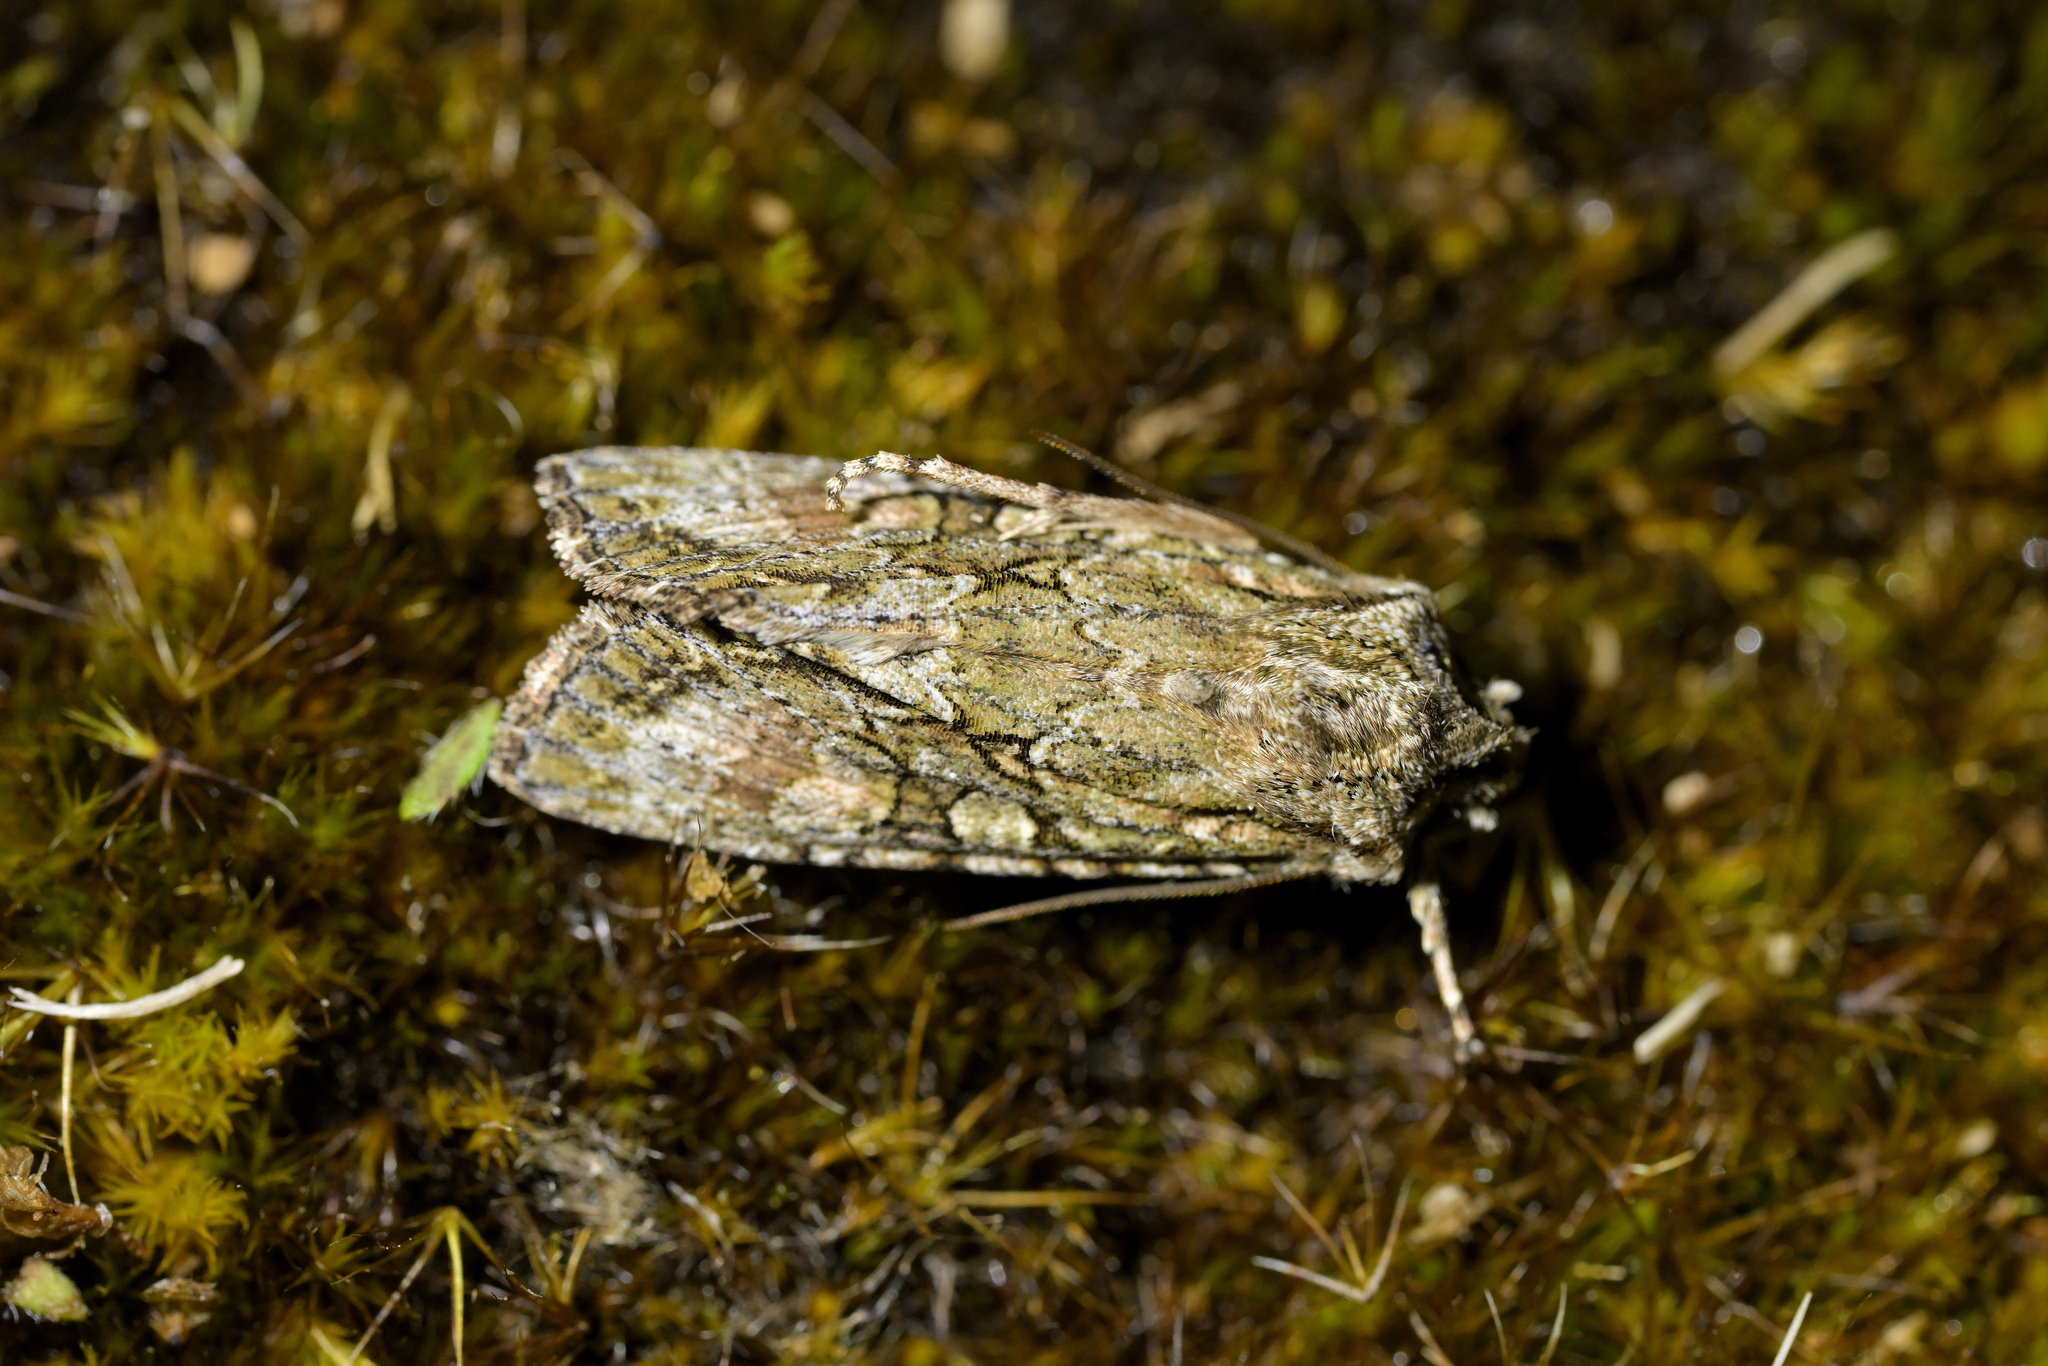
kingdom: Animalia
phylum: Arthropoda
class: Insecta
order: Lepidoptera
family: Noctuidae
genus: Ichneutica
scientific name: Ichneutica mutans
